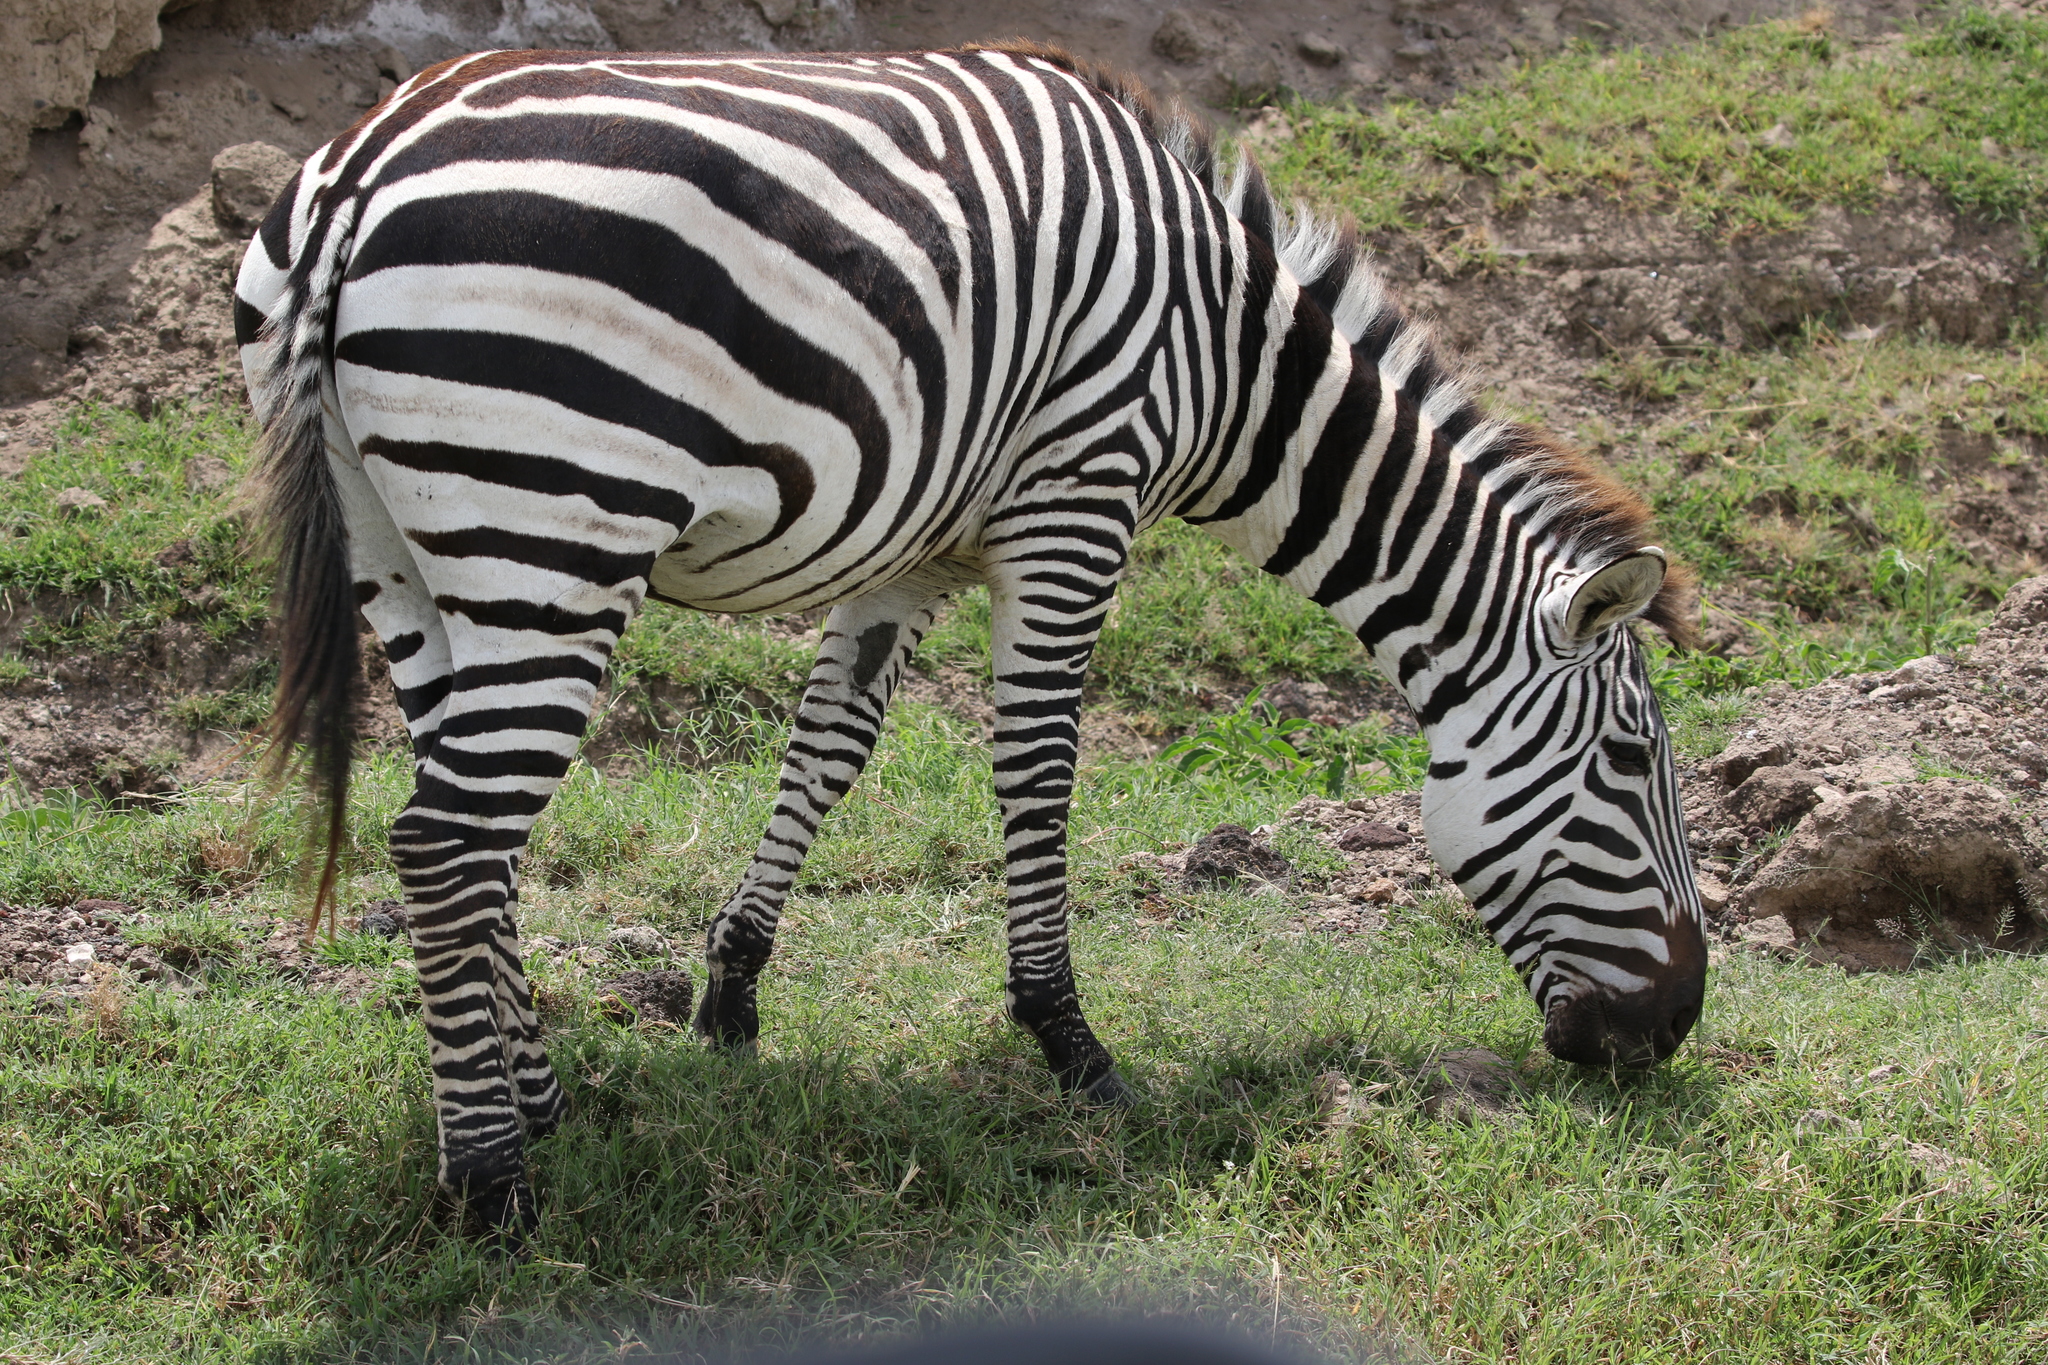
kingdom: Animalia
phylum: Chordata
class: Mammalia
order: Perissodactyla
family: Equidae
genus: Equus
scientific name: Equus quagga
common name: Plains zebra
